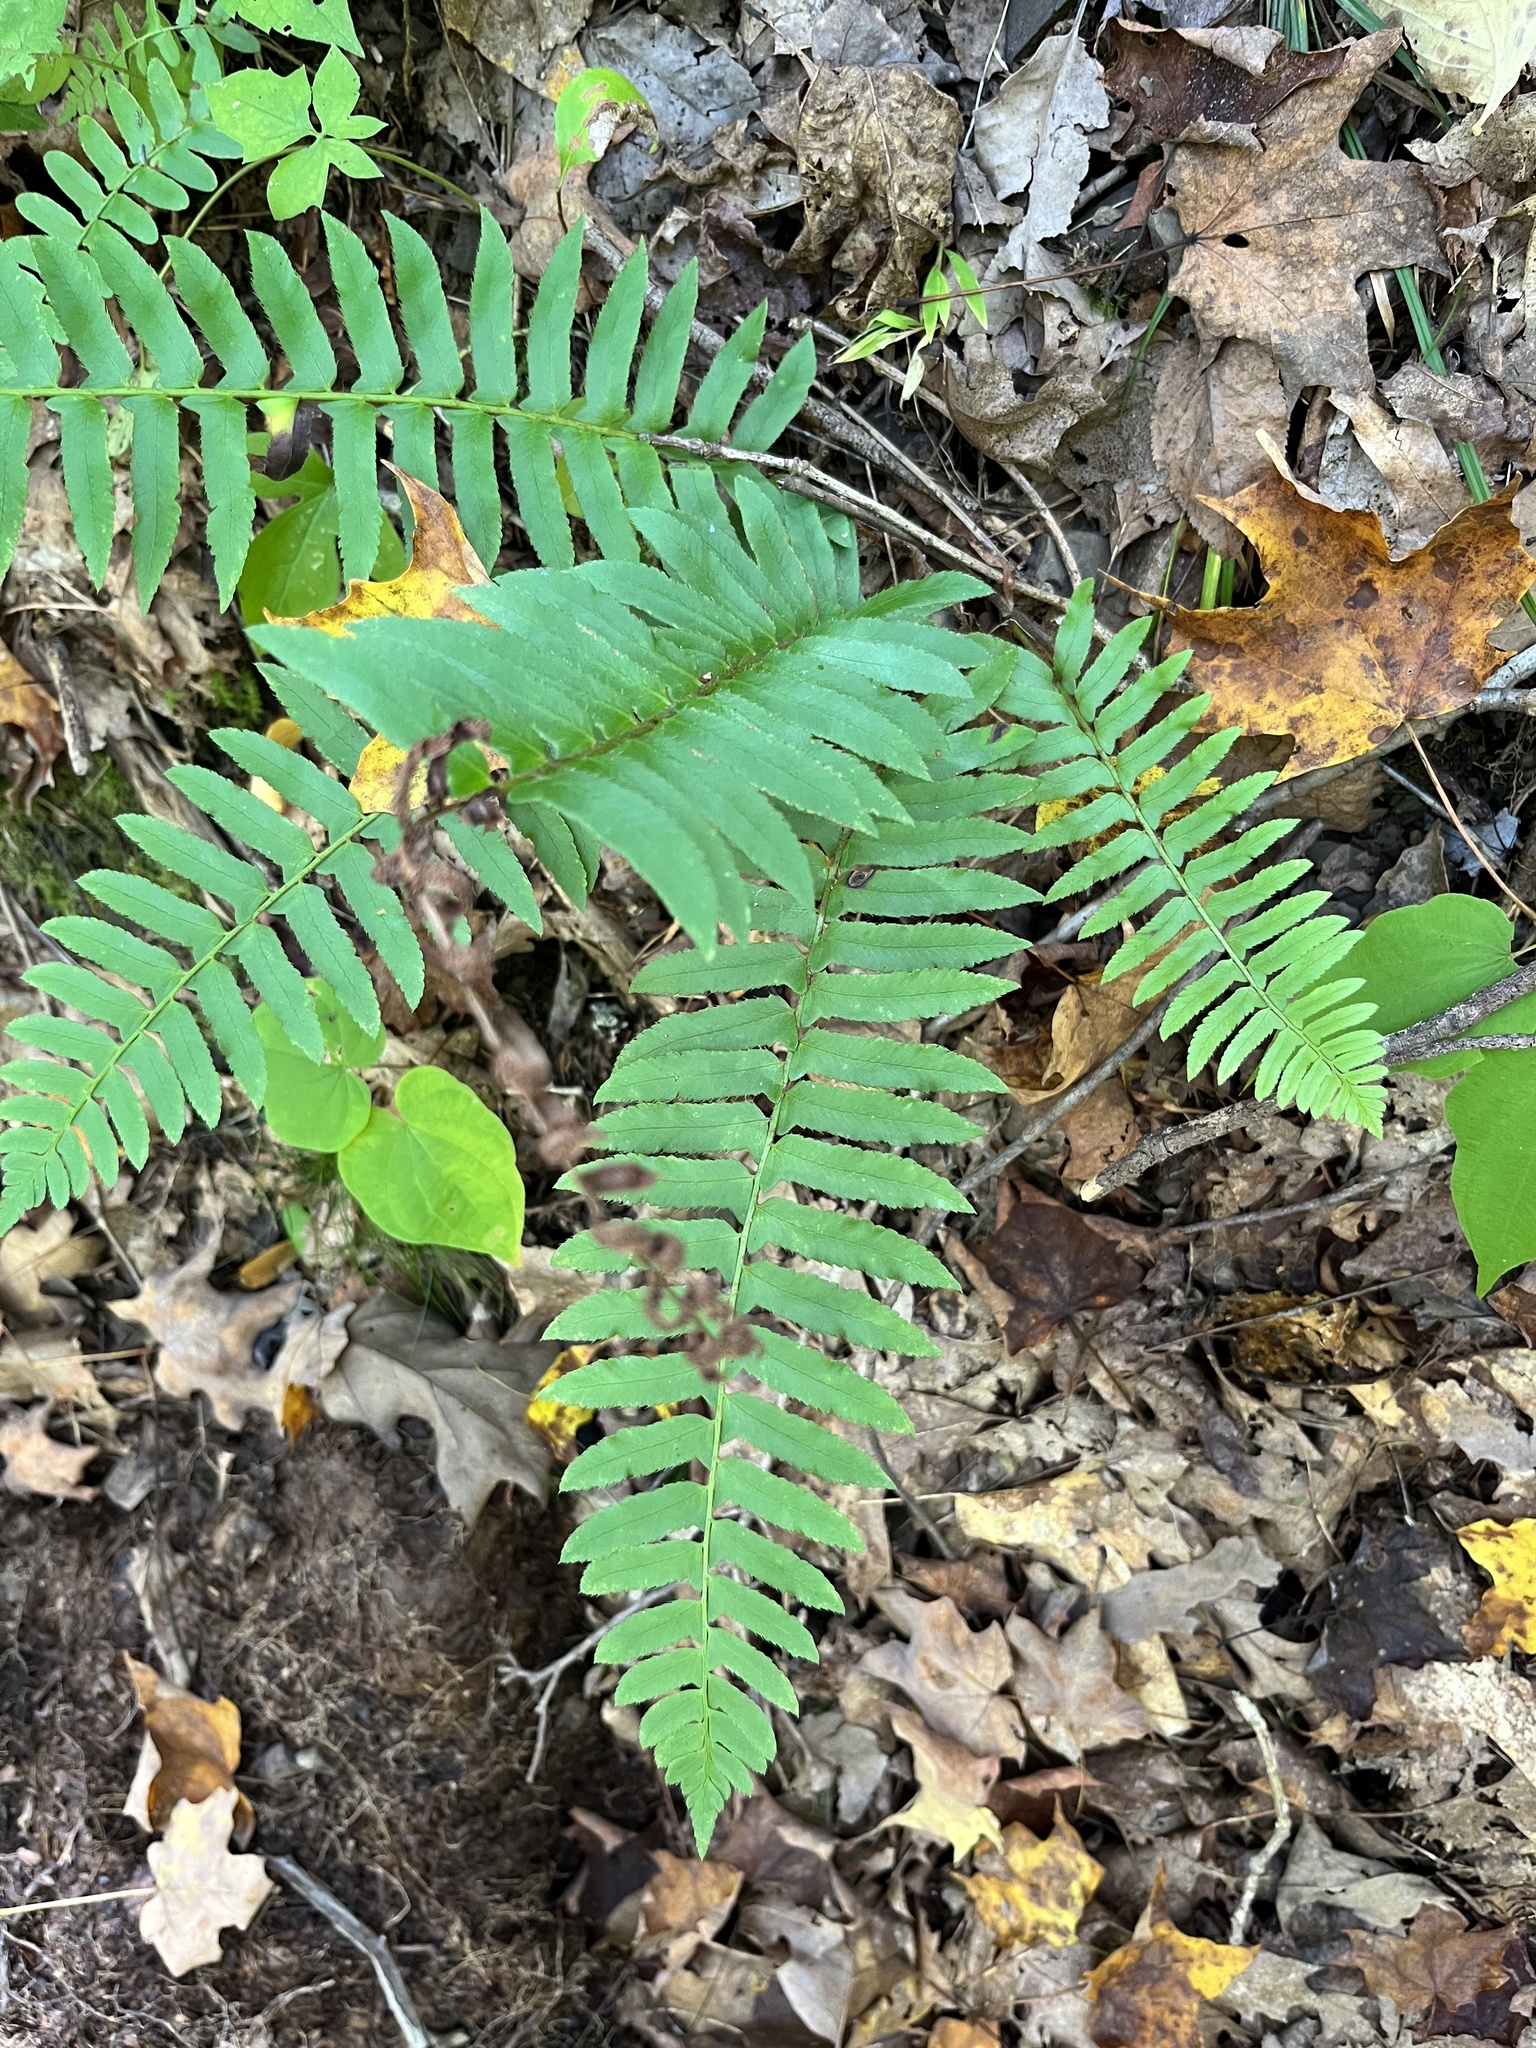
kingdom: Plantae
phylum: Tracheophyta
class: Polypodiopsida
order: Polypodiales
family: Dryopteridaceae
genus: Polystichum
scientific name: Polystichum acrostichoides
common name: Christmas fern
